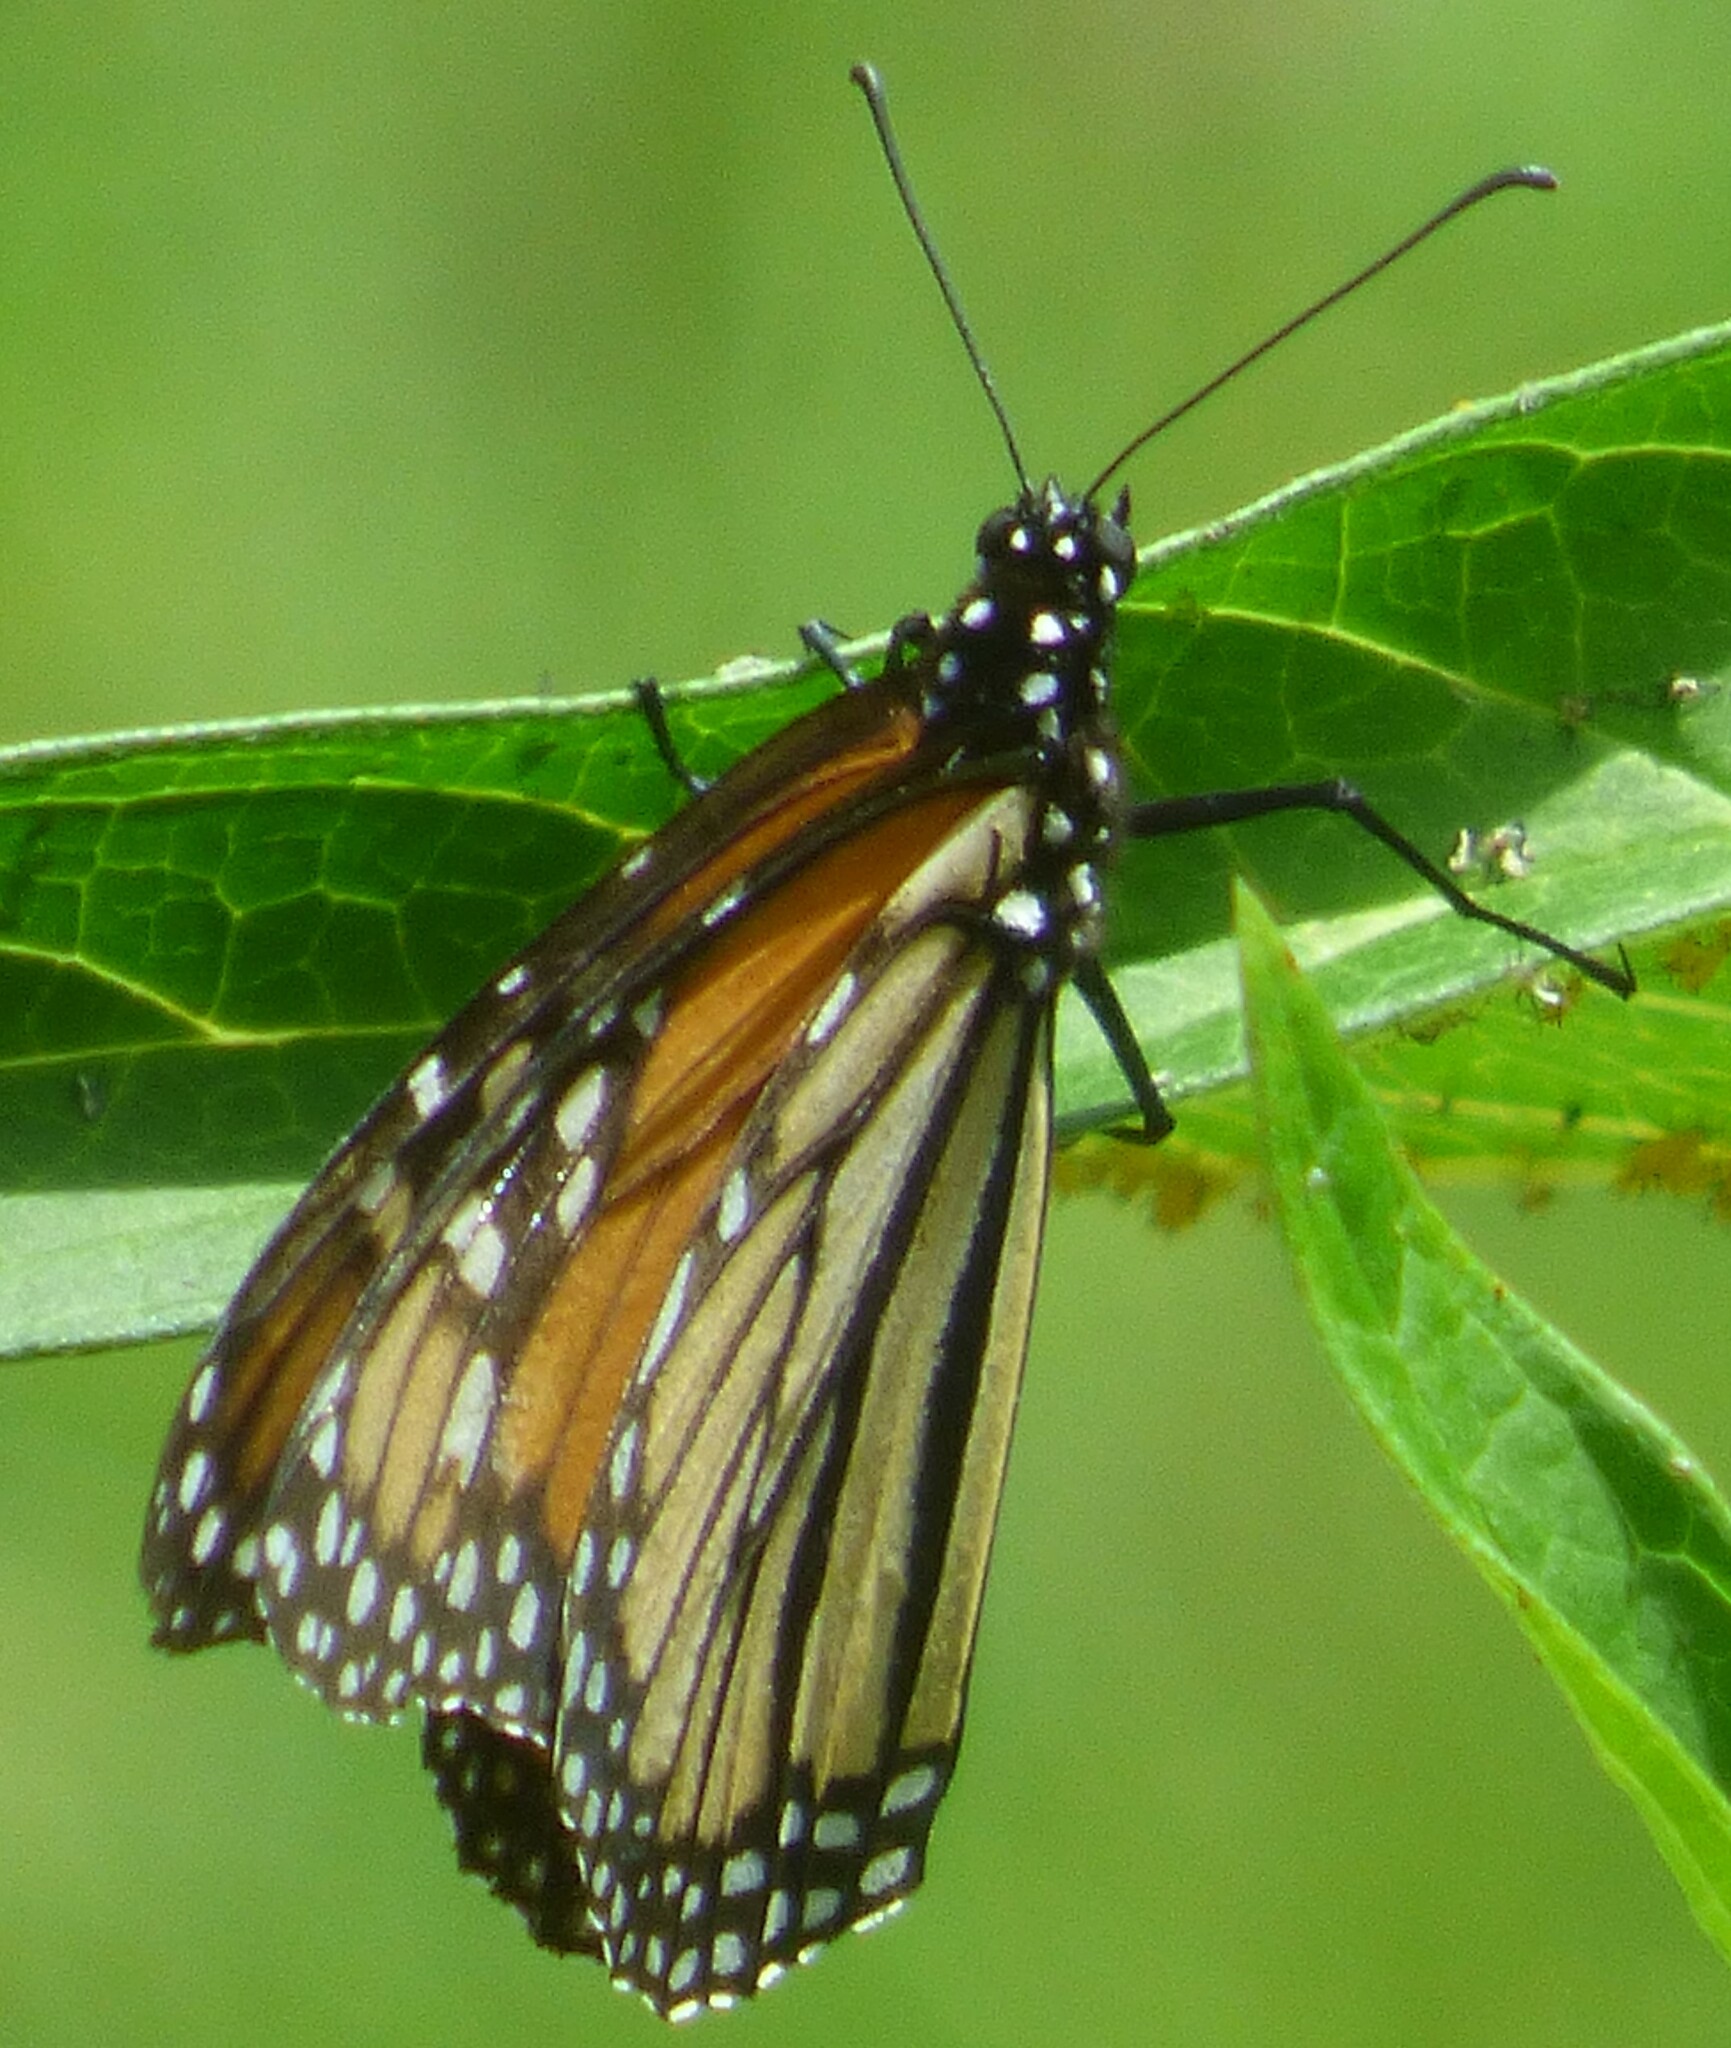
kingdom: Animalia
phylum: Arthropoda
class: Insecta
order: Lepidoptera
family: Nymphalidae
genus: Danaus
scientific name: Danaus plexippus
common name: Monarch
